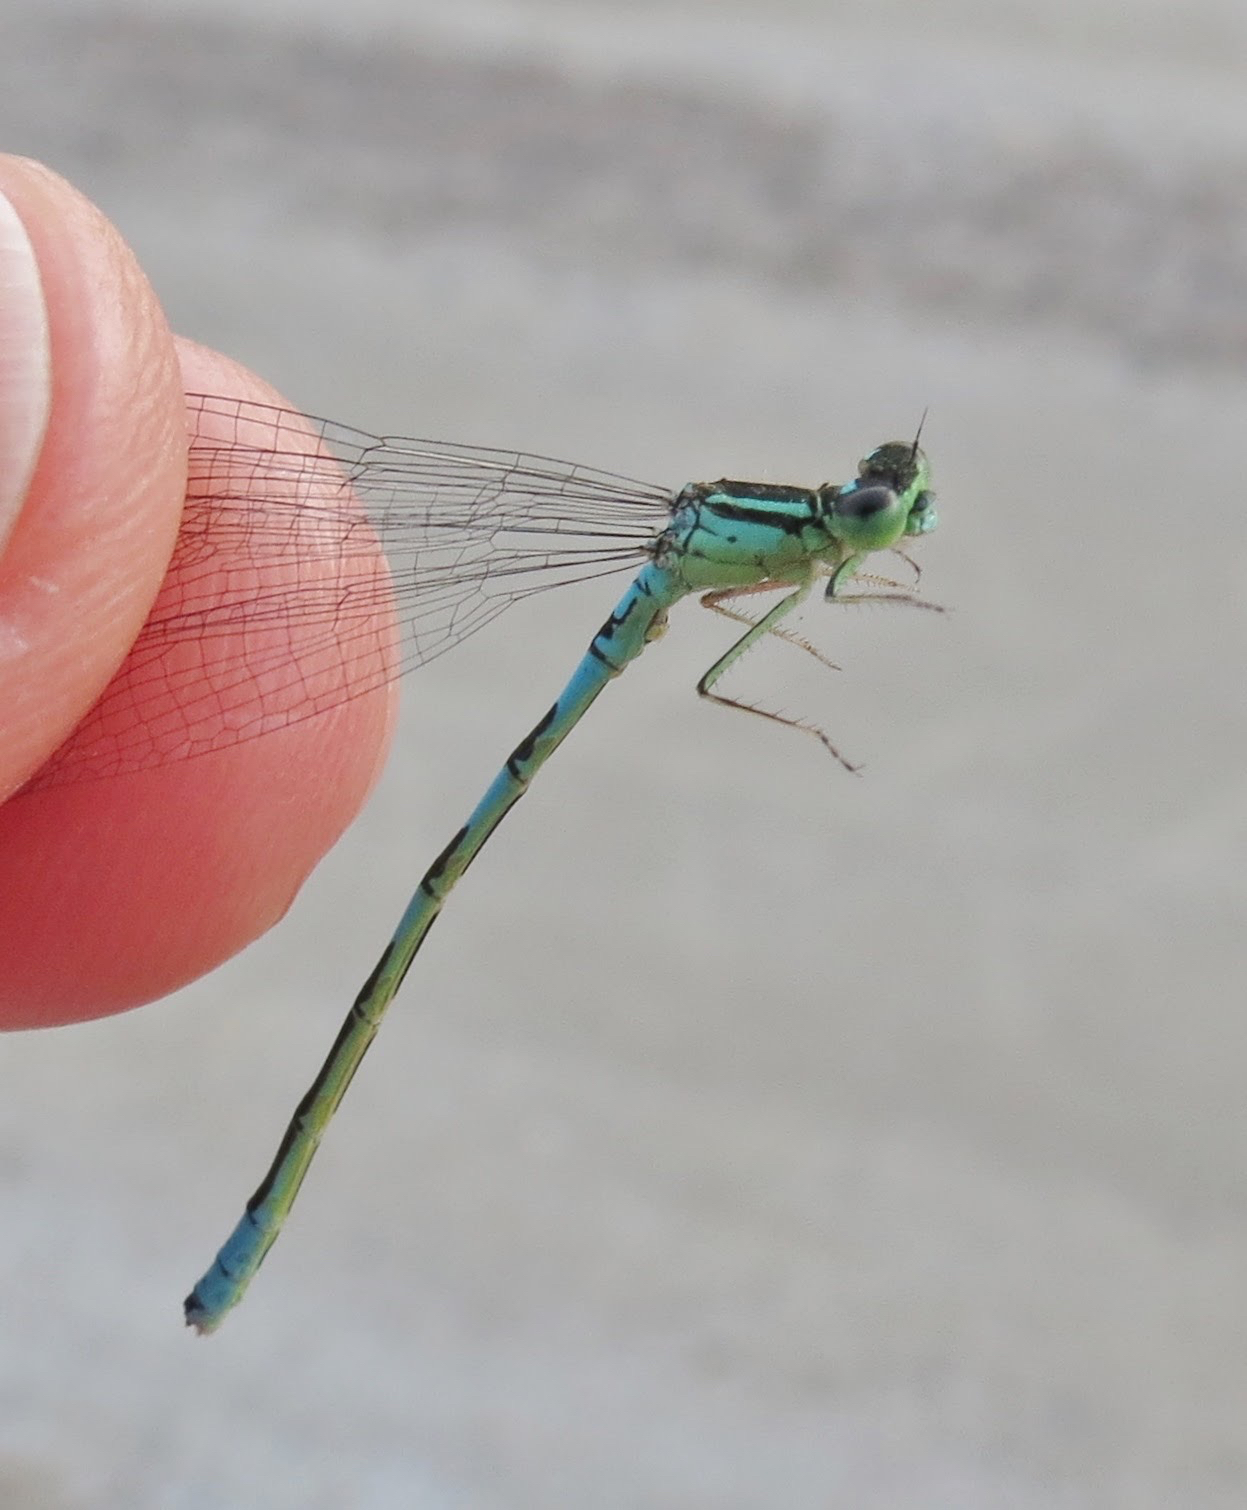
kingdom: Animalia
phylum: Arthropoda
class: Insecta
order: Odonata
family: Coenagrionidae
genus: Coenagrion
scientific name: Coenagrion resolutum
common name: Taiga bluet
